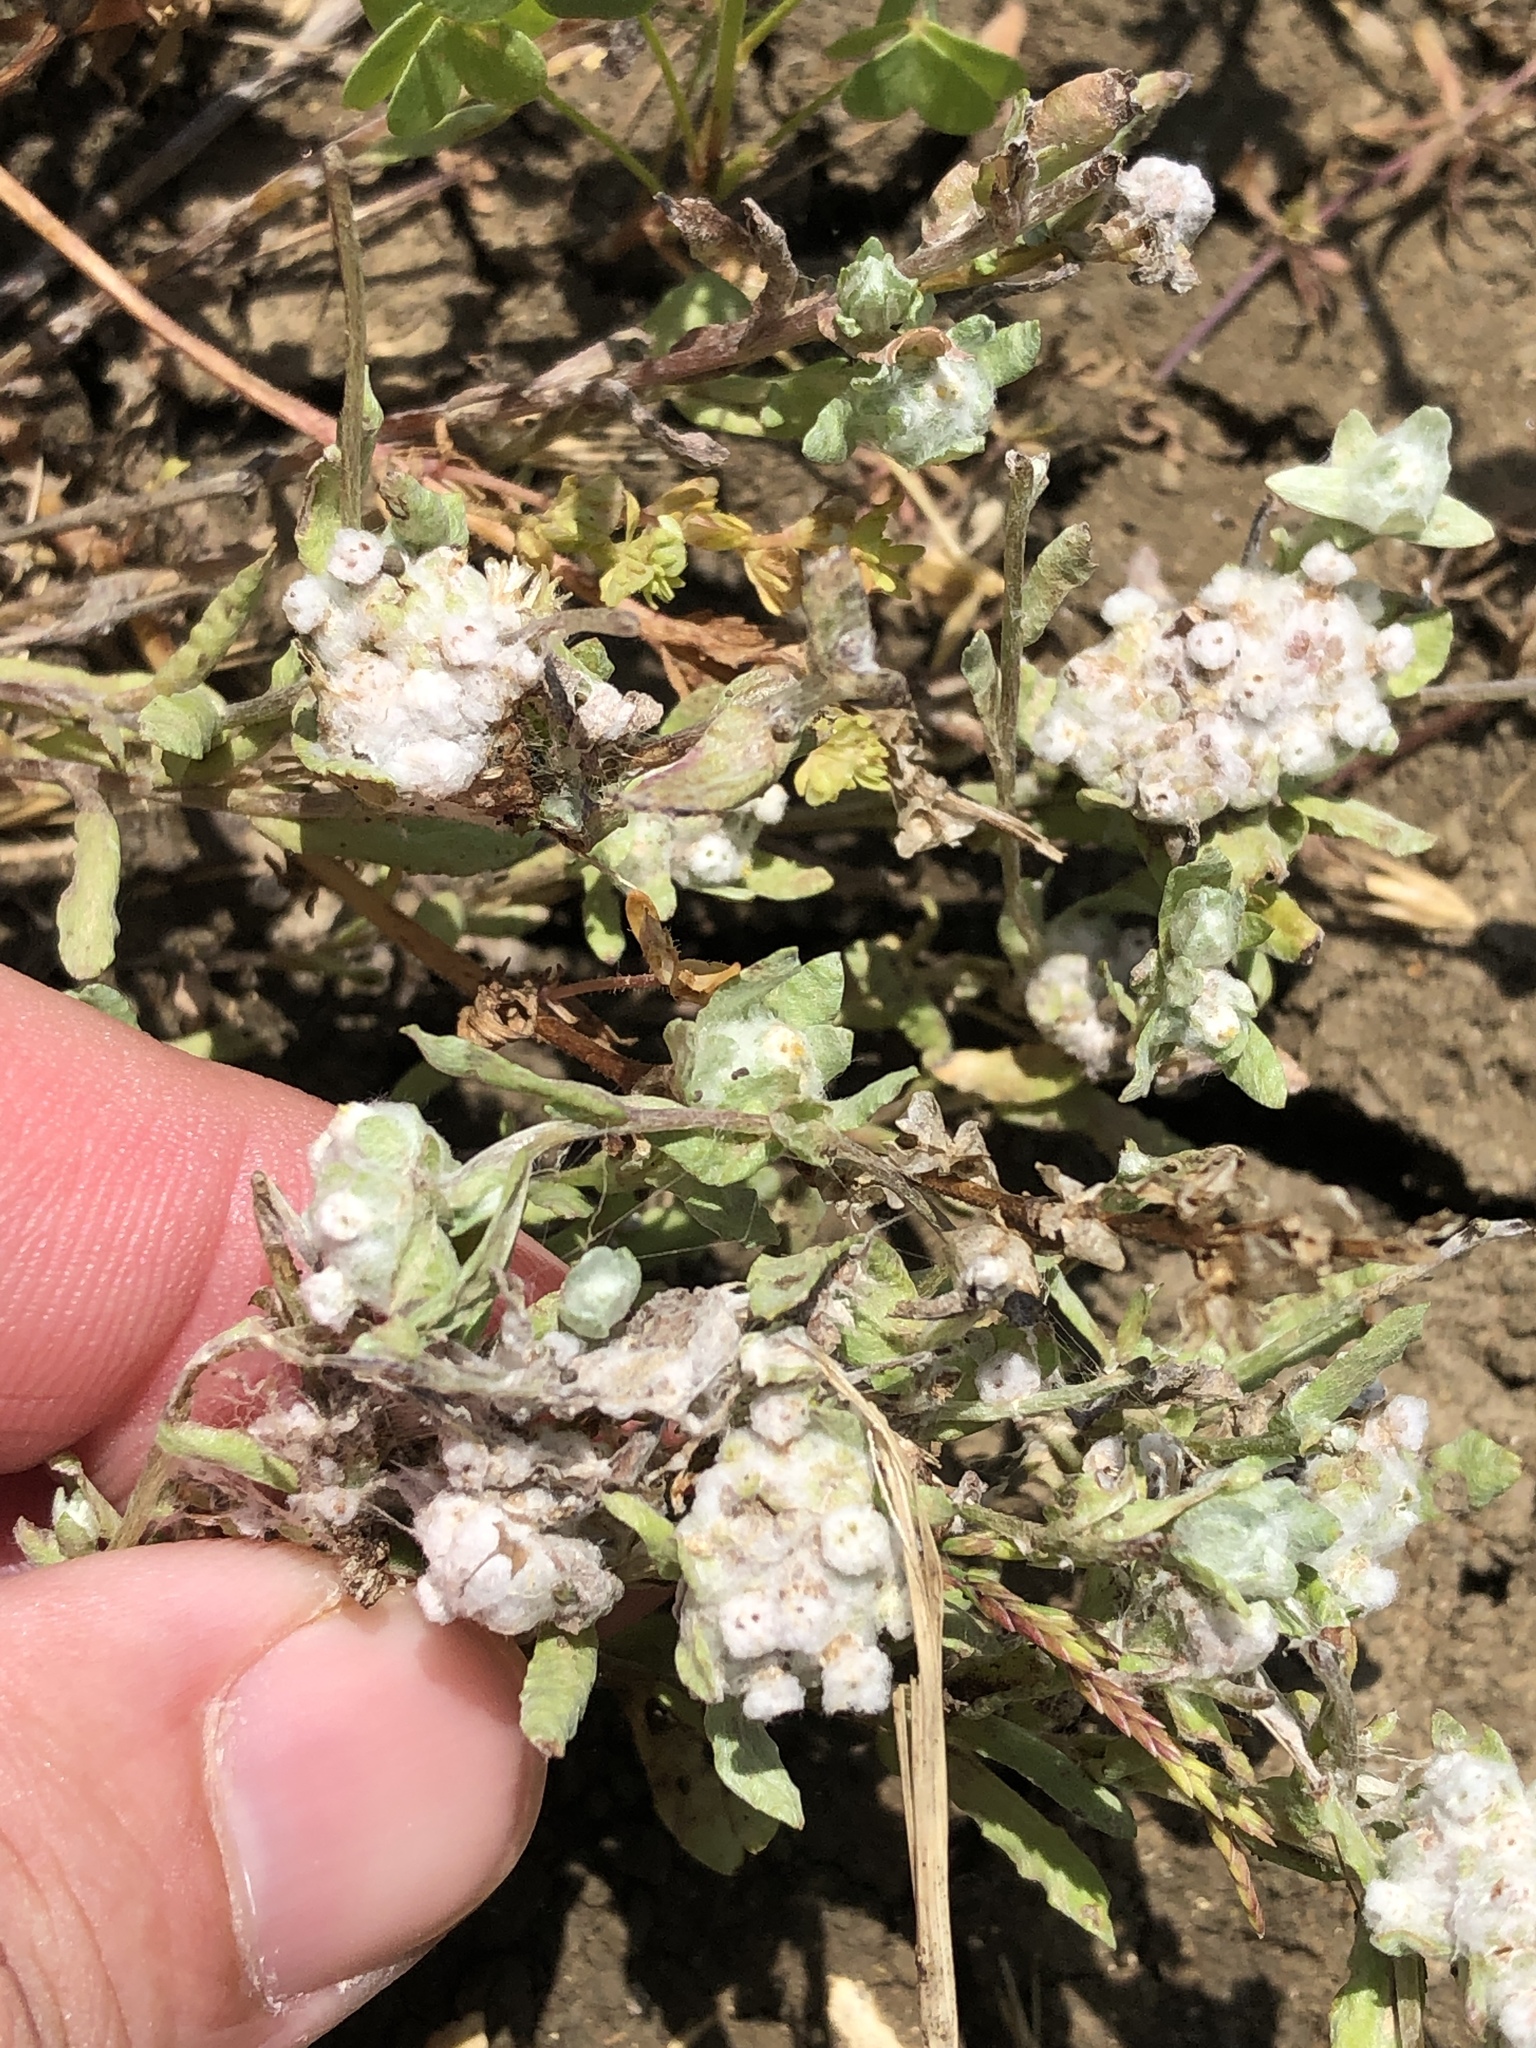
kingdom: Plantae
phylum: Tracheophyta
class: Magnoliopsida
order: Asterales
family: Asteraceae
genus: Diaperia
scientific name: Diaperia verna
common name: Many-stem rabbit-tobacco
